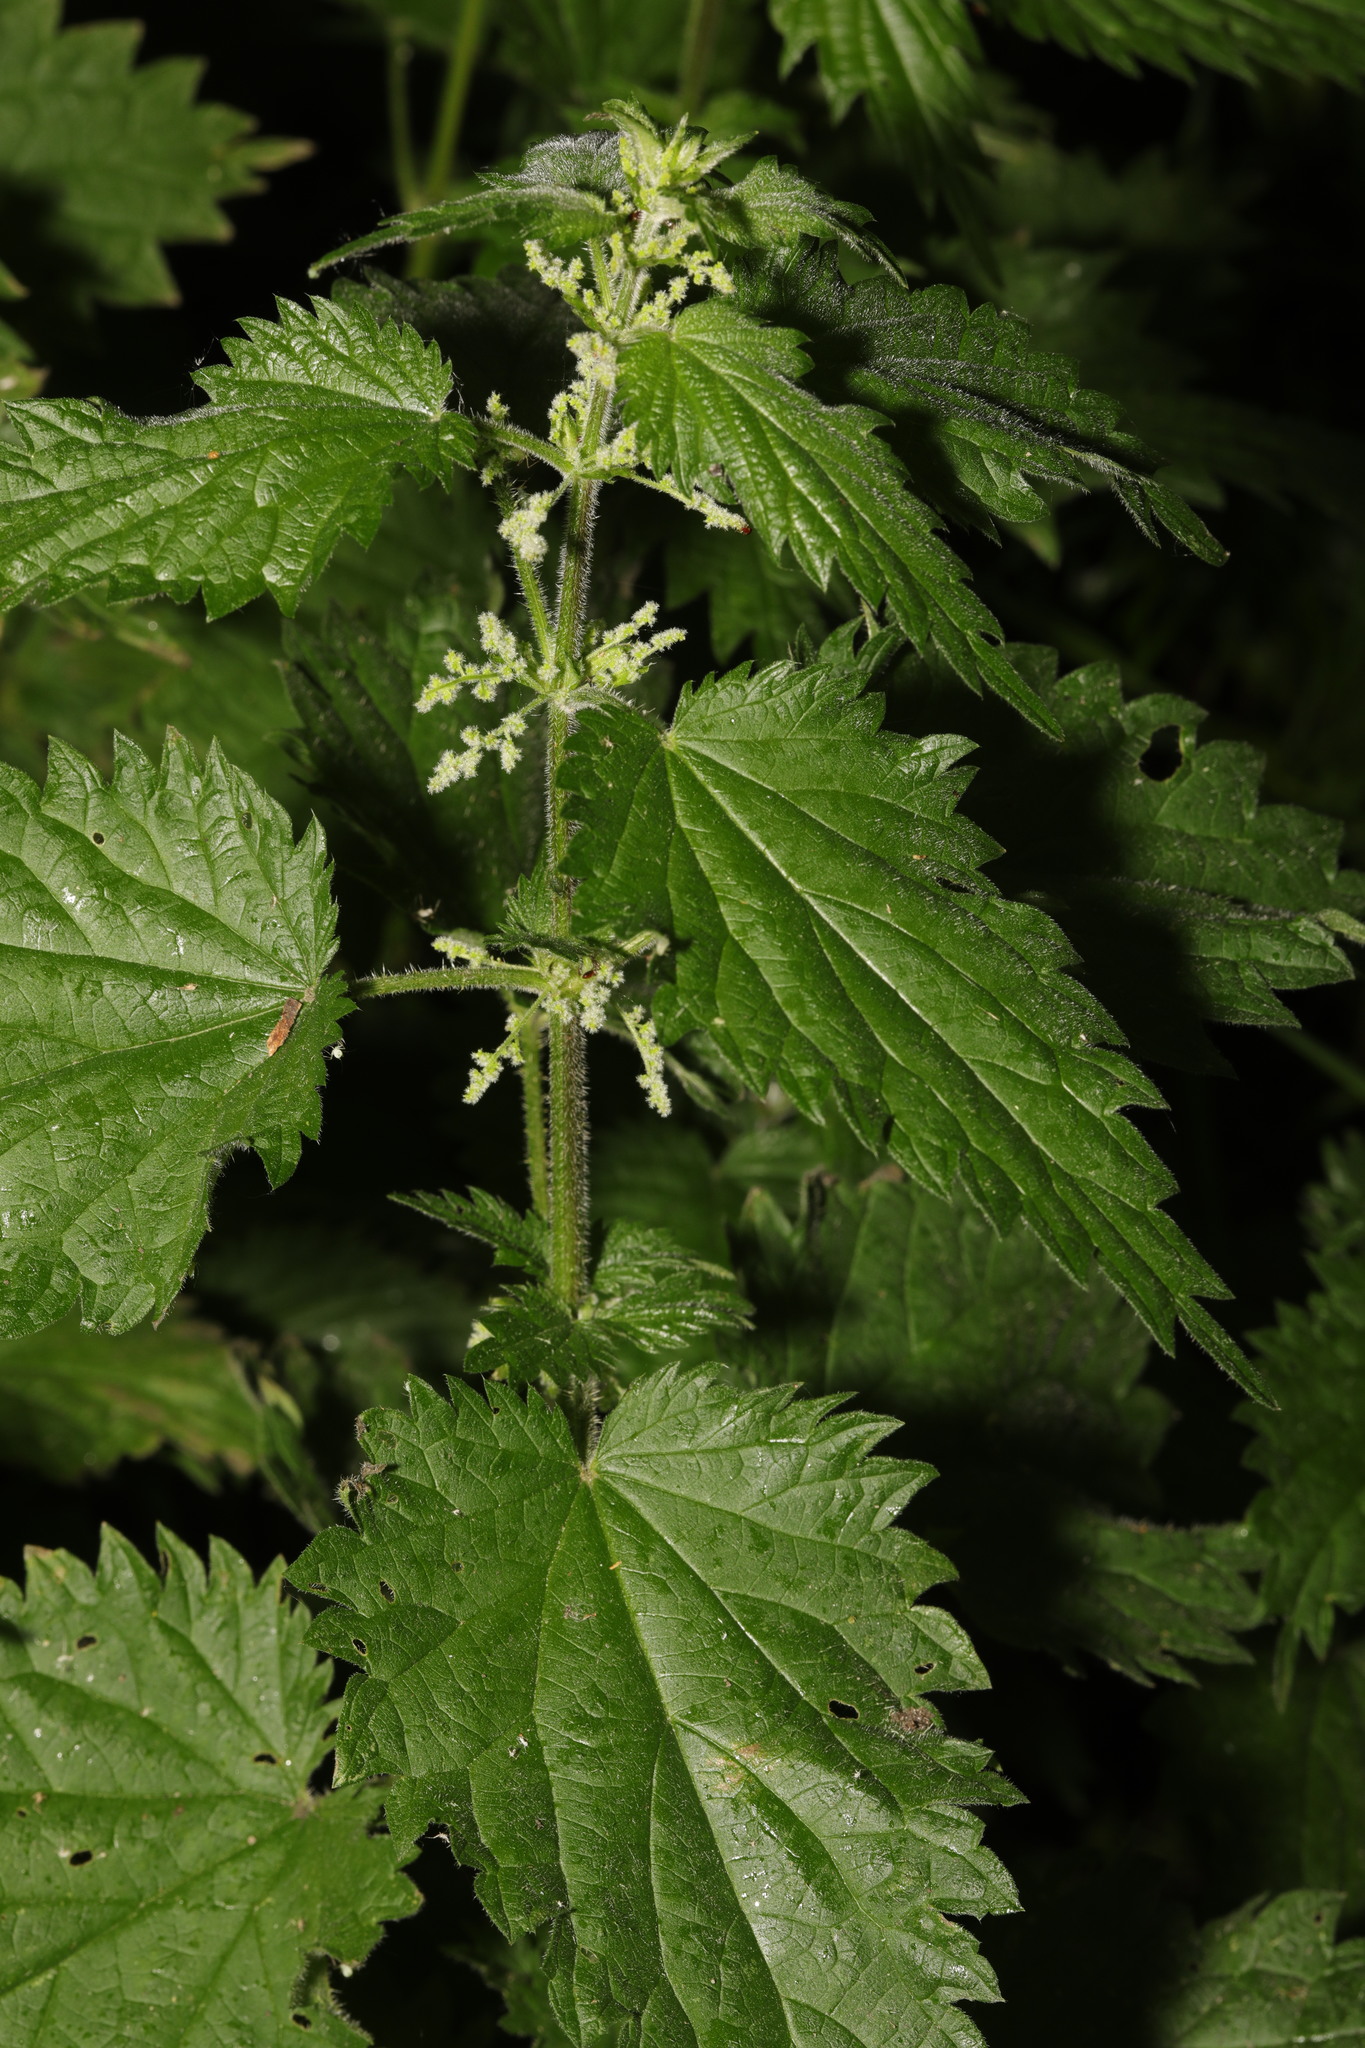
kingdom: Plantae
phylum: Tracheophyta
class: Magnoliopsida
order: Rosales
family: Urticaceae
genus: Urtica
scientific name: Urtica dioica
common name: Common nettle
